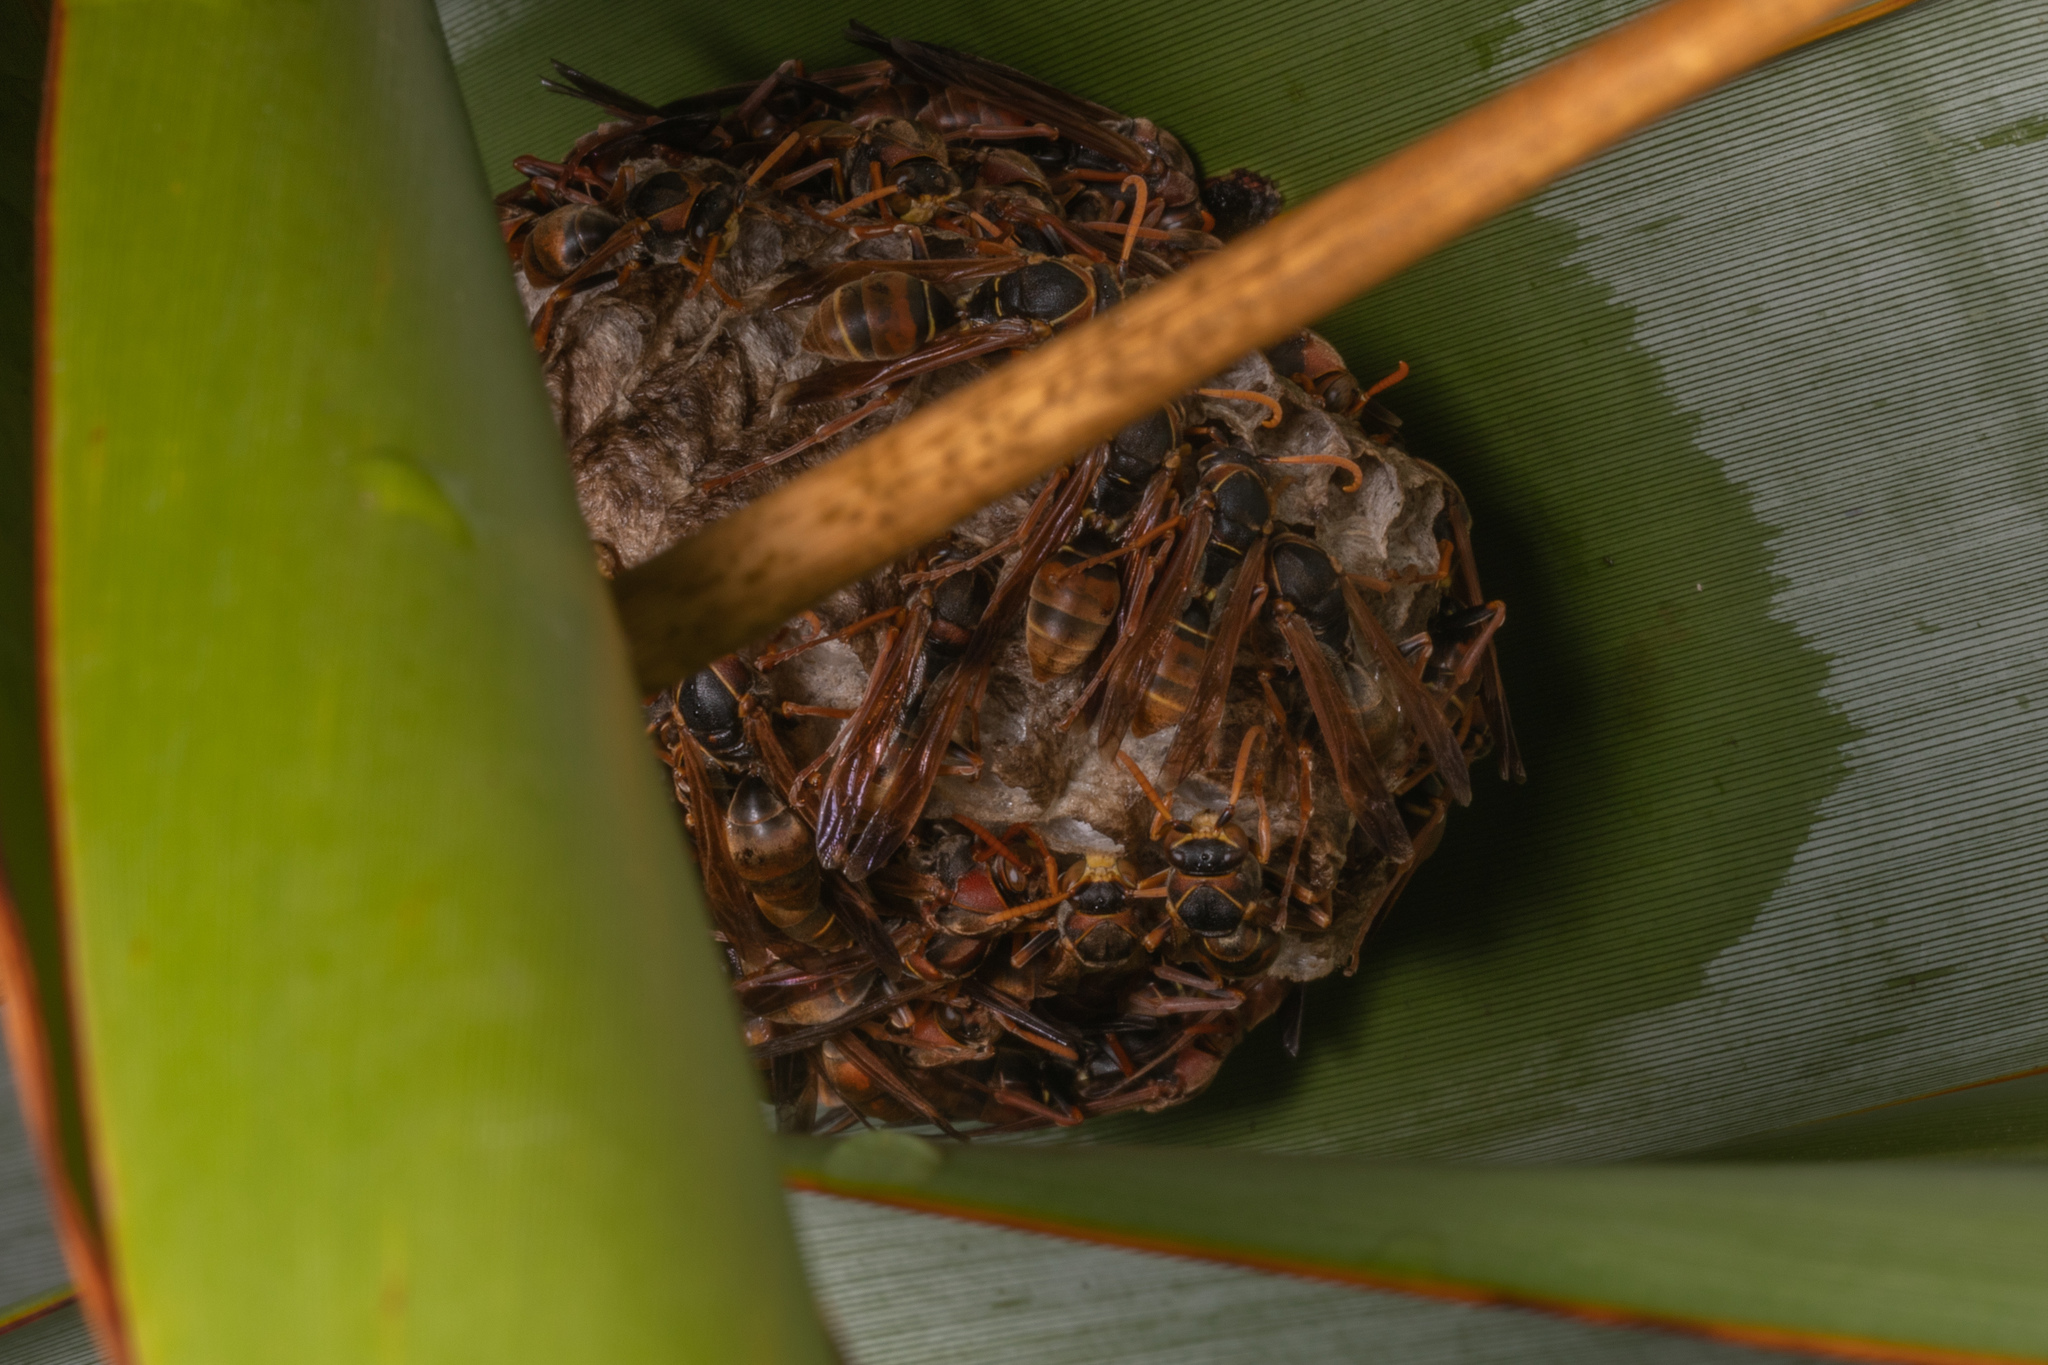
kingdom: Animalia
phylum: Arthropoda
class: Insecta
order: Hymenoptera
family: Eumenidae
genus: Polistes
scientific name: Polistes humilis
